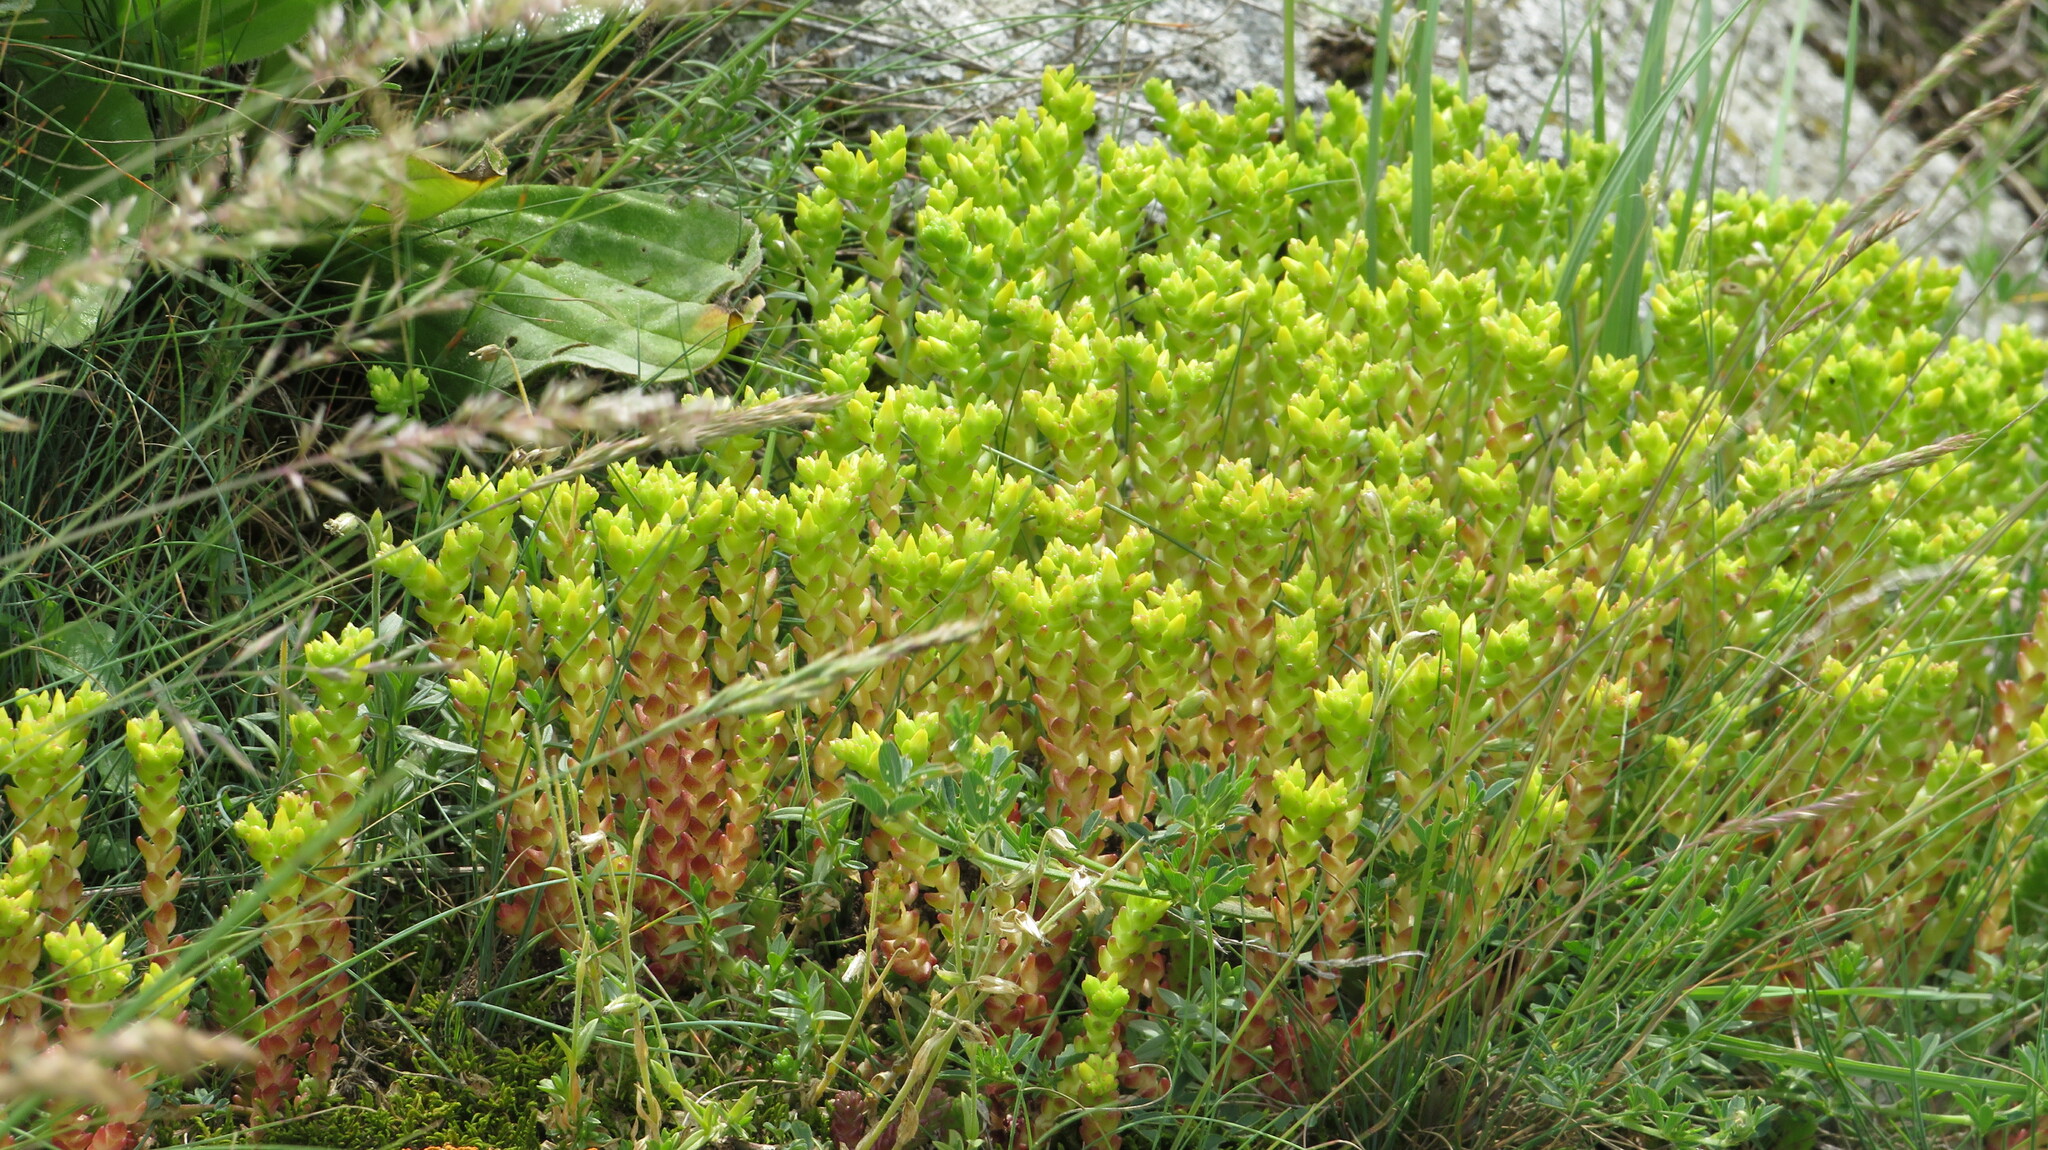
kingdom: Plantae
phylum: Tracheophyta
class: Magnoliopsida
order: Saxifragales
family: Crassulaceae
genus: Sedum
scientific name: Sedum acre
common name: Biting stonecrop
